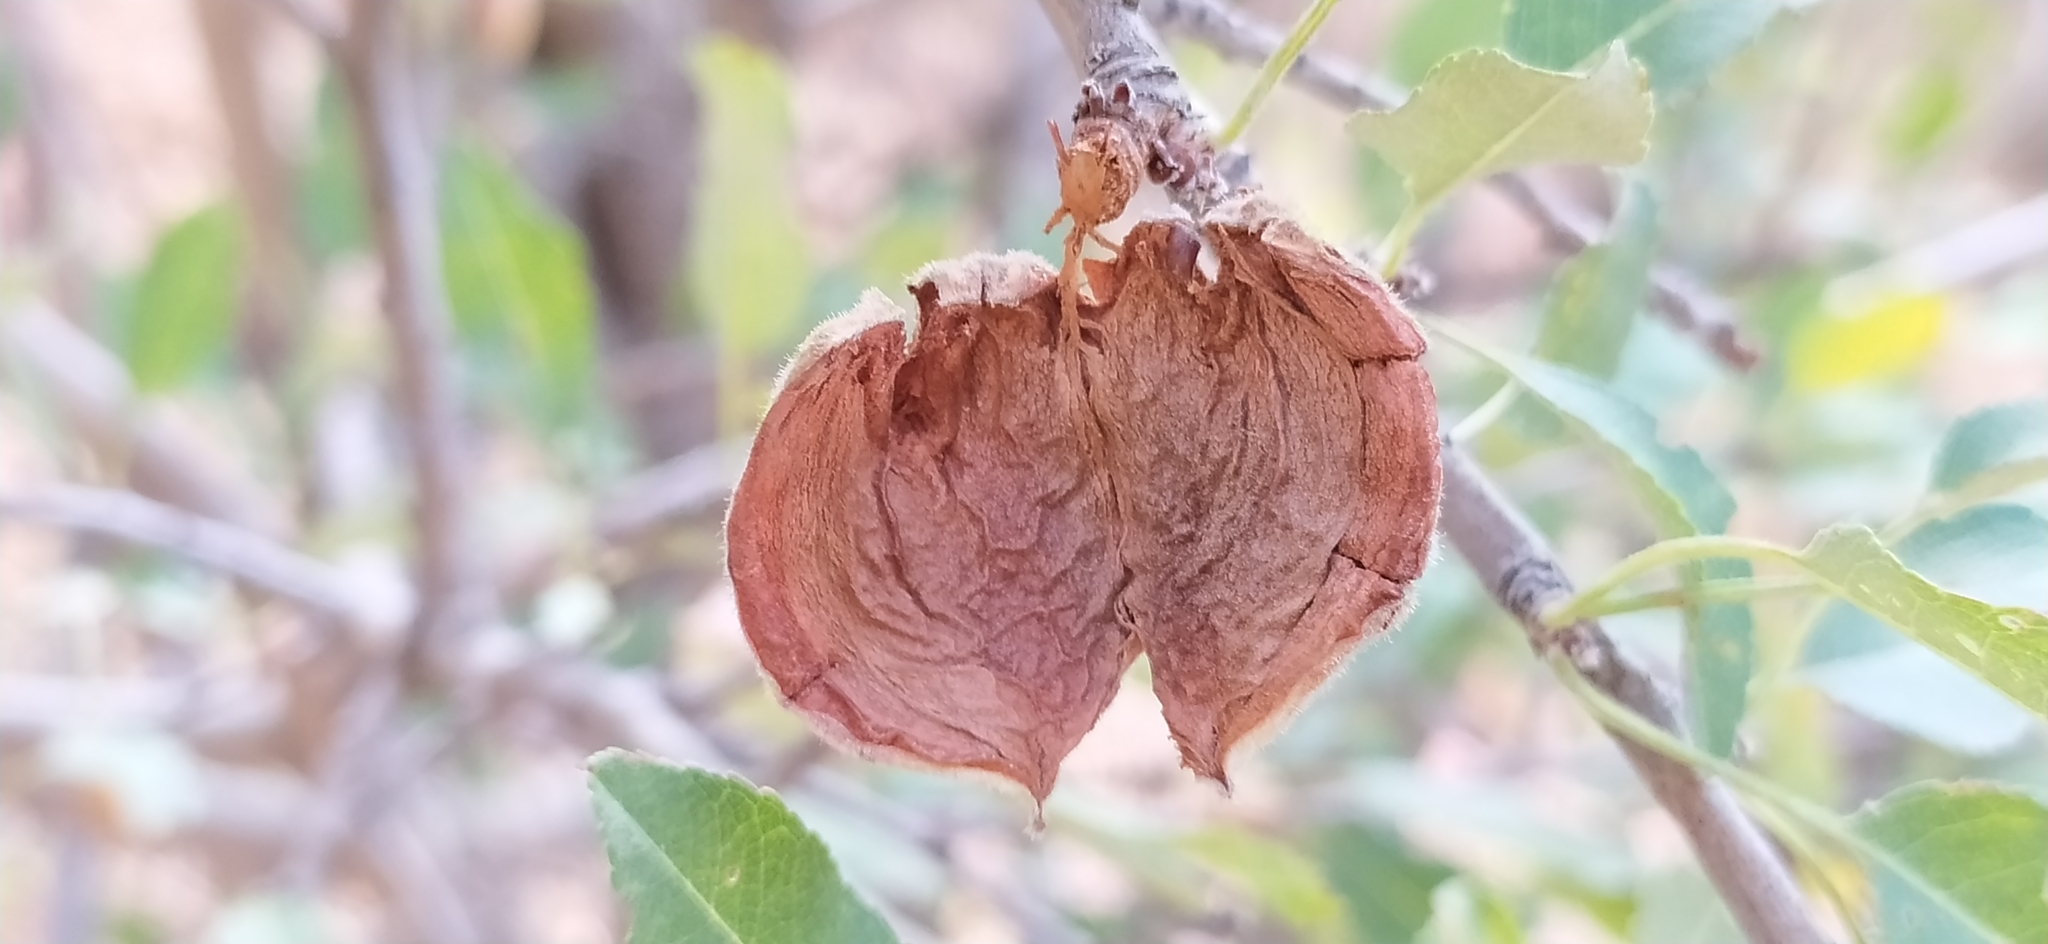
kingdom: Plantae
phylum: Tracheophyta
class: Magnoliopsida
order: Rosales
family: Rosaceae
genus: Prunus
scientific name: Prunus bucharica
